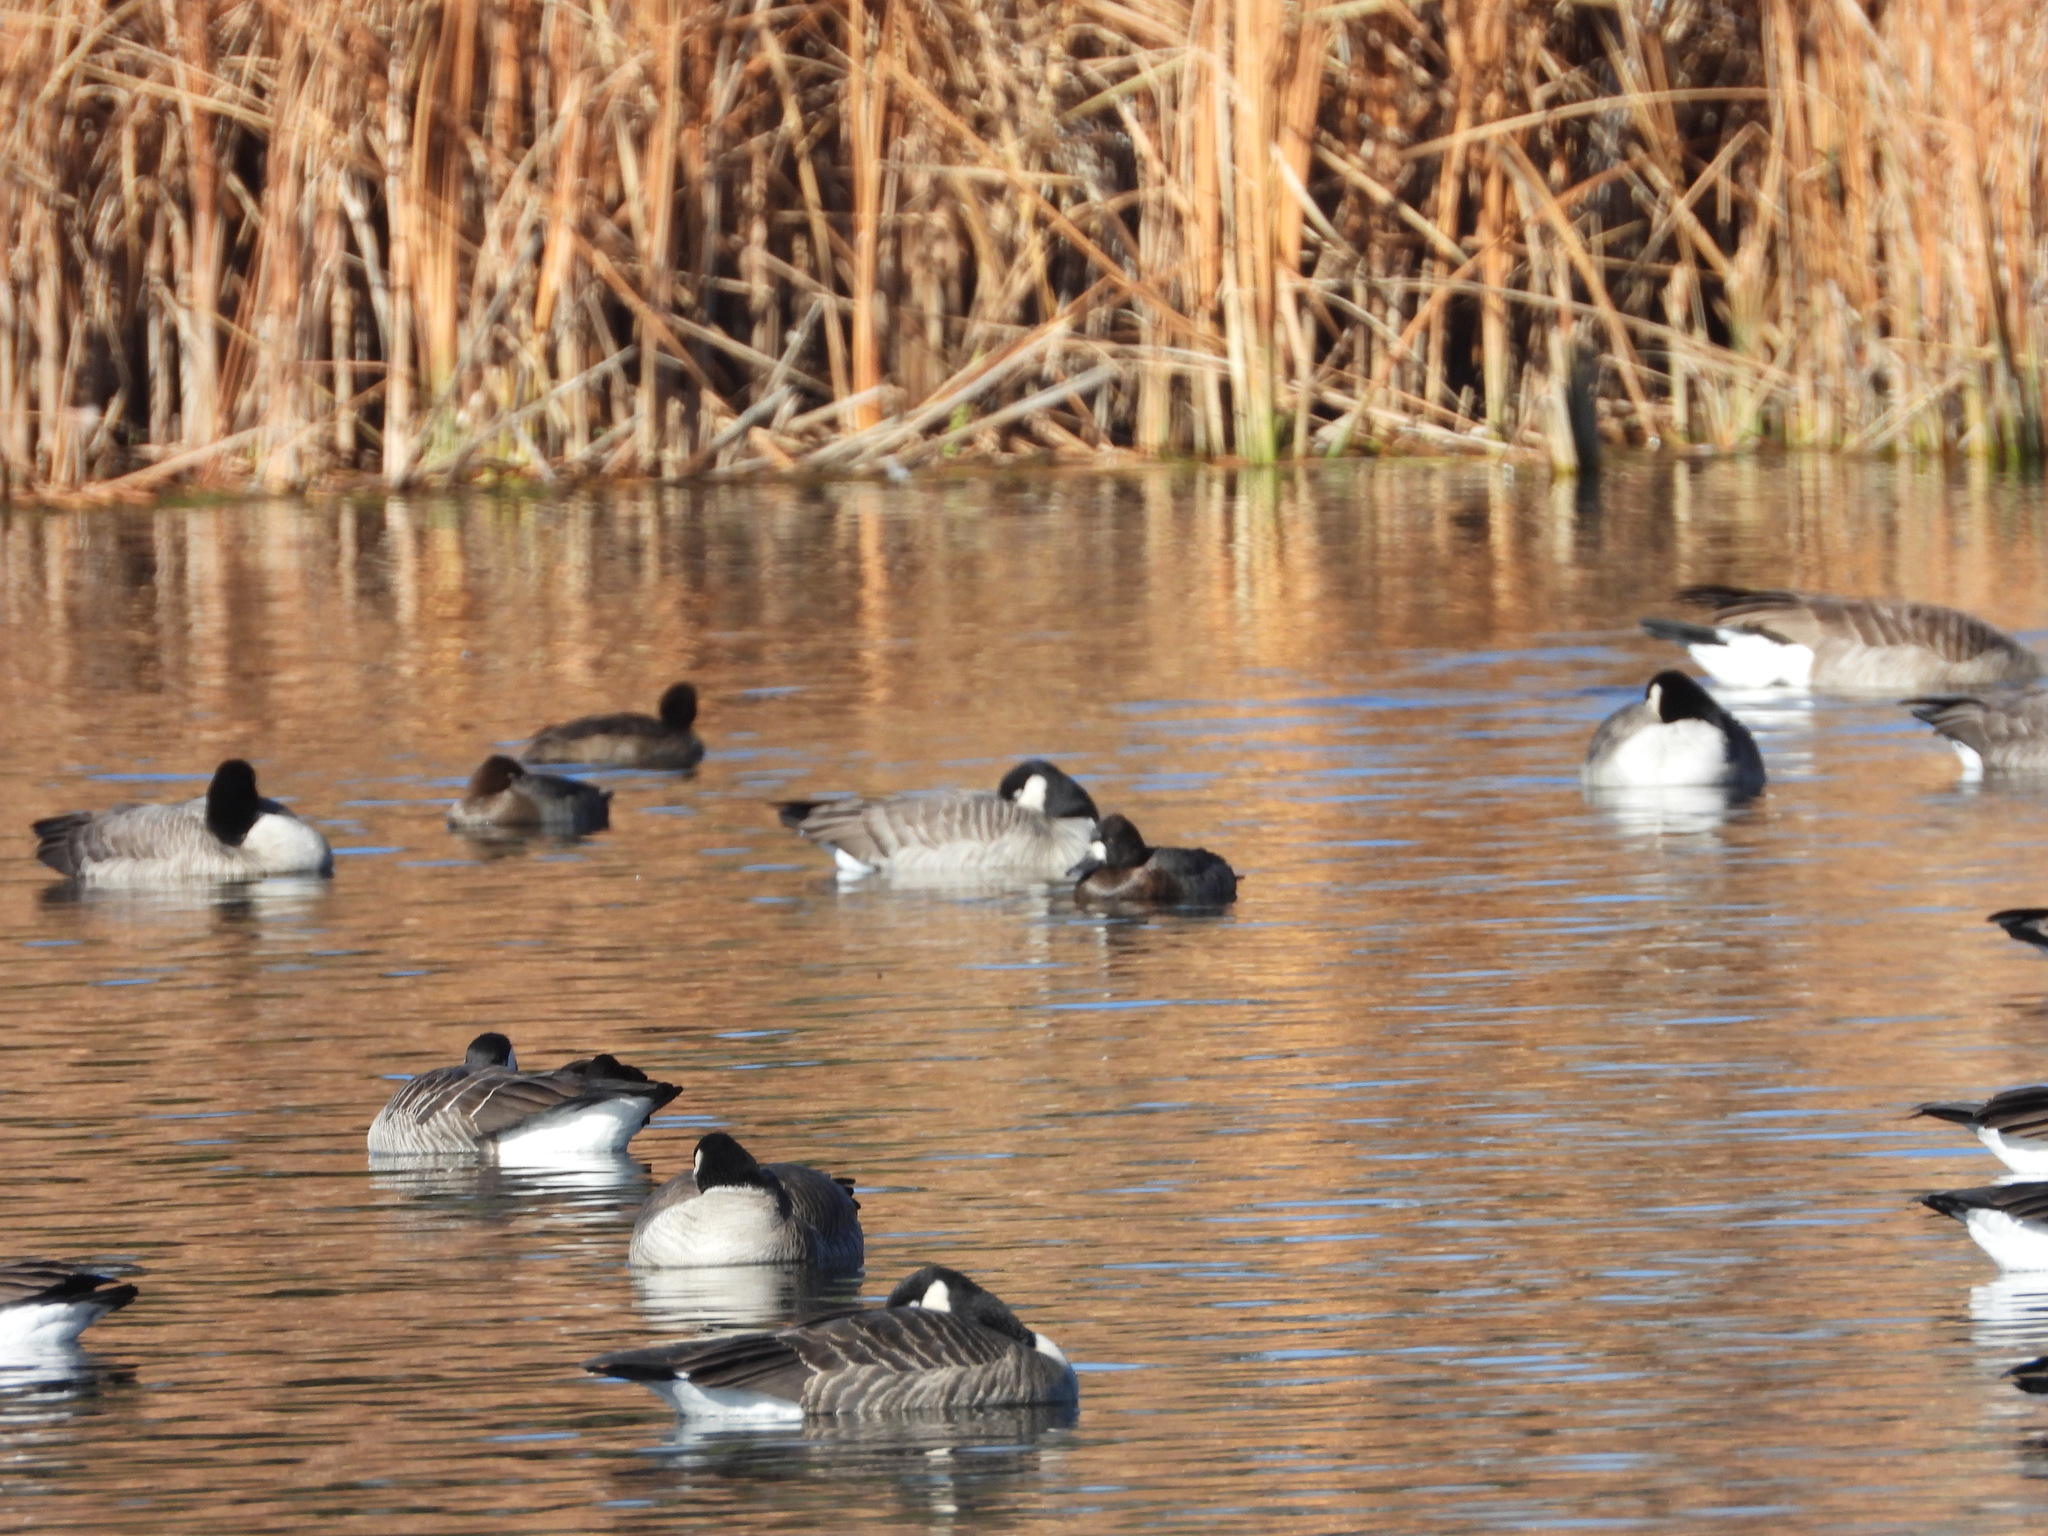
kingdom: Animalia
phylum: Chordata
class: Aves
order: Anseriformes
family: Anatidae
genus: Aythya
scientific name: Aythya affinis
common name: Lesser scaup
